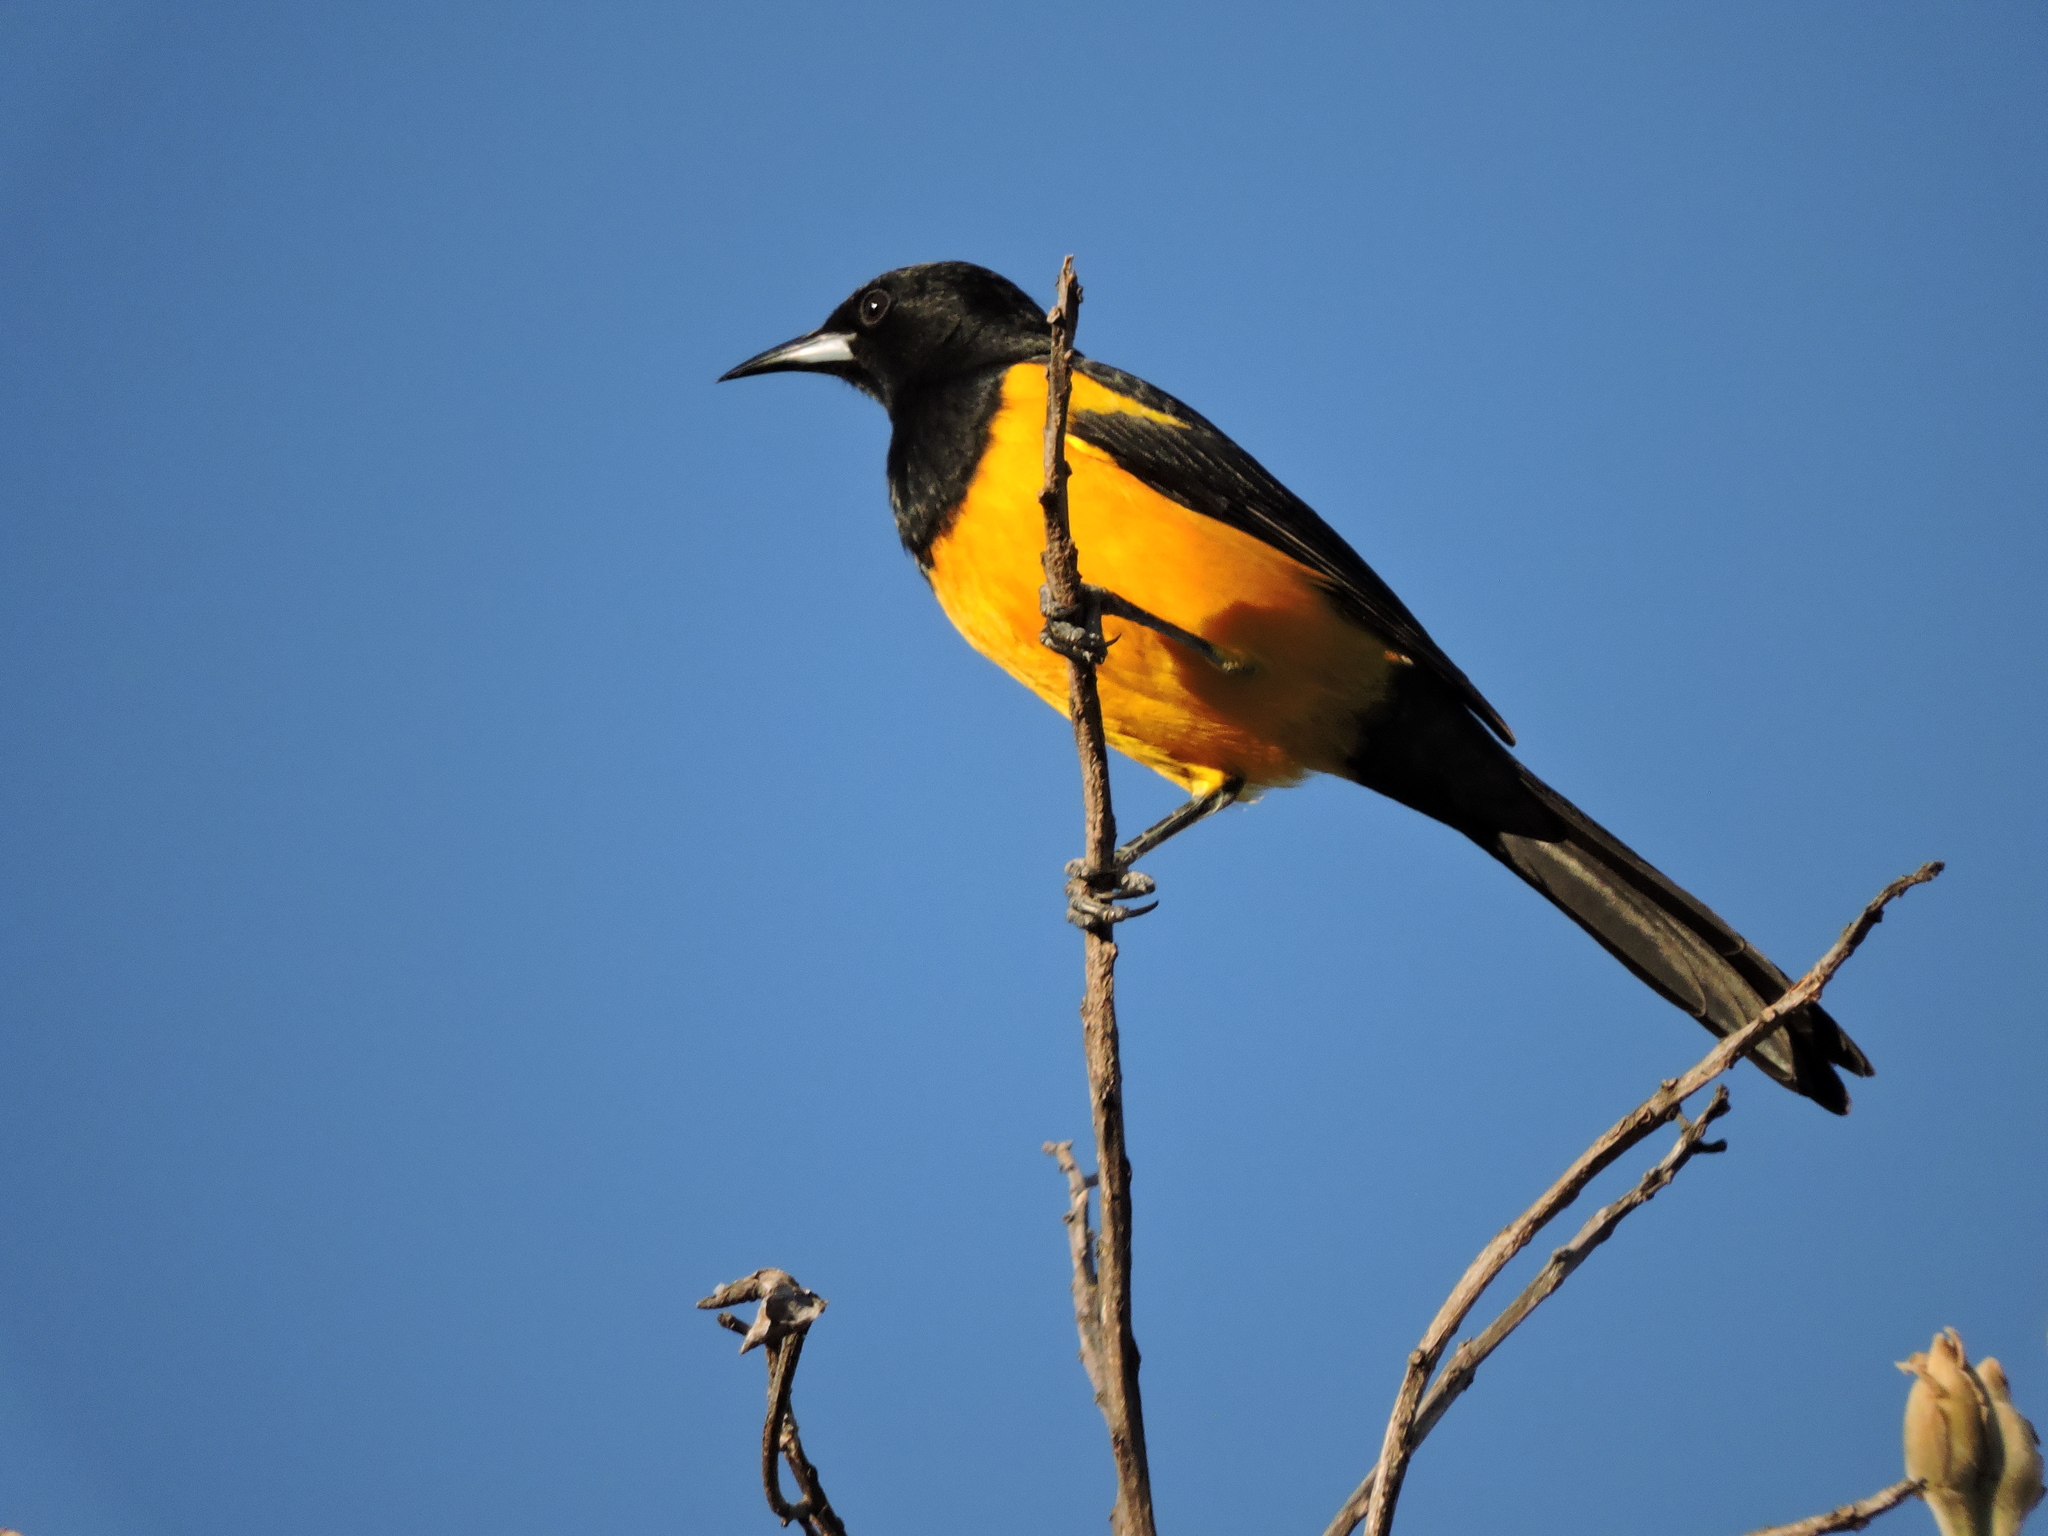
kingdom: Animalia
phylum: Chordata
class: Aves
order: Passeriformes
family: Icteridae
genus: Icterus
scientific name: Icterus wagleri
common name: Black-vented oriole
